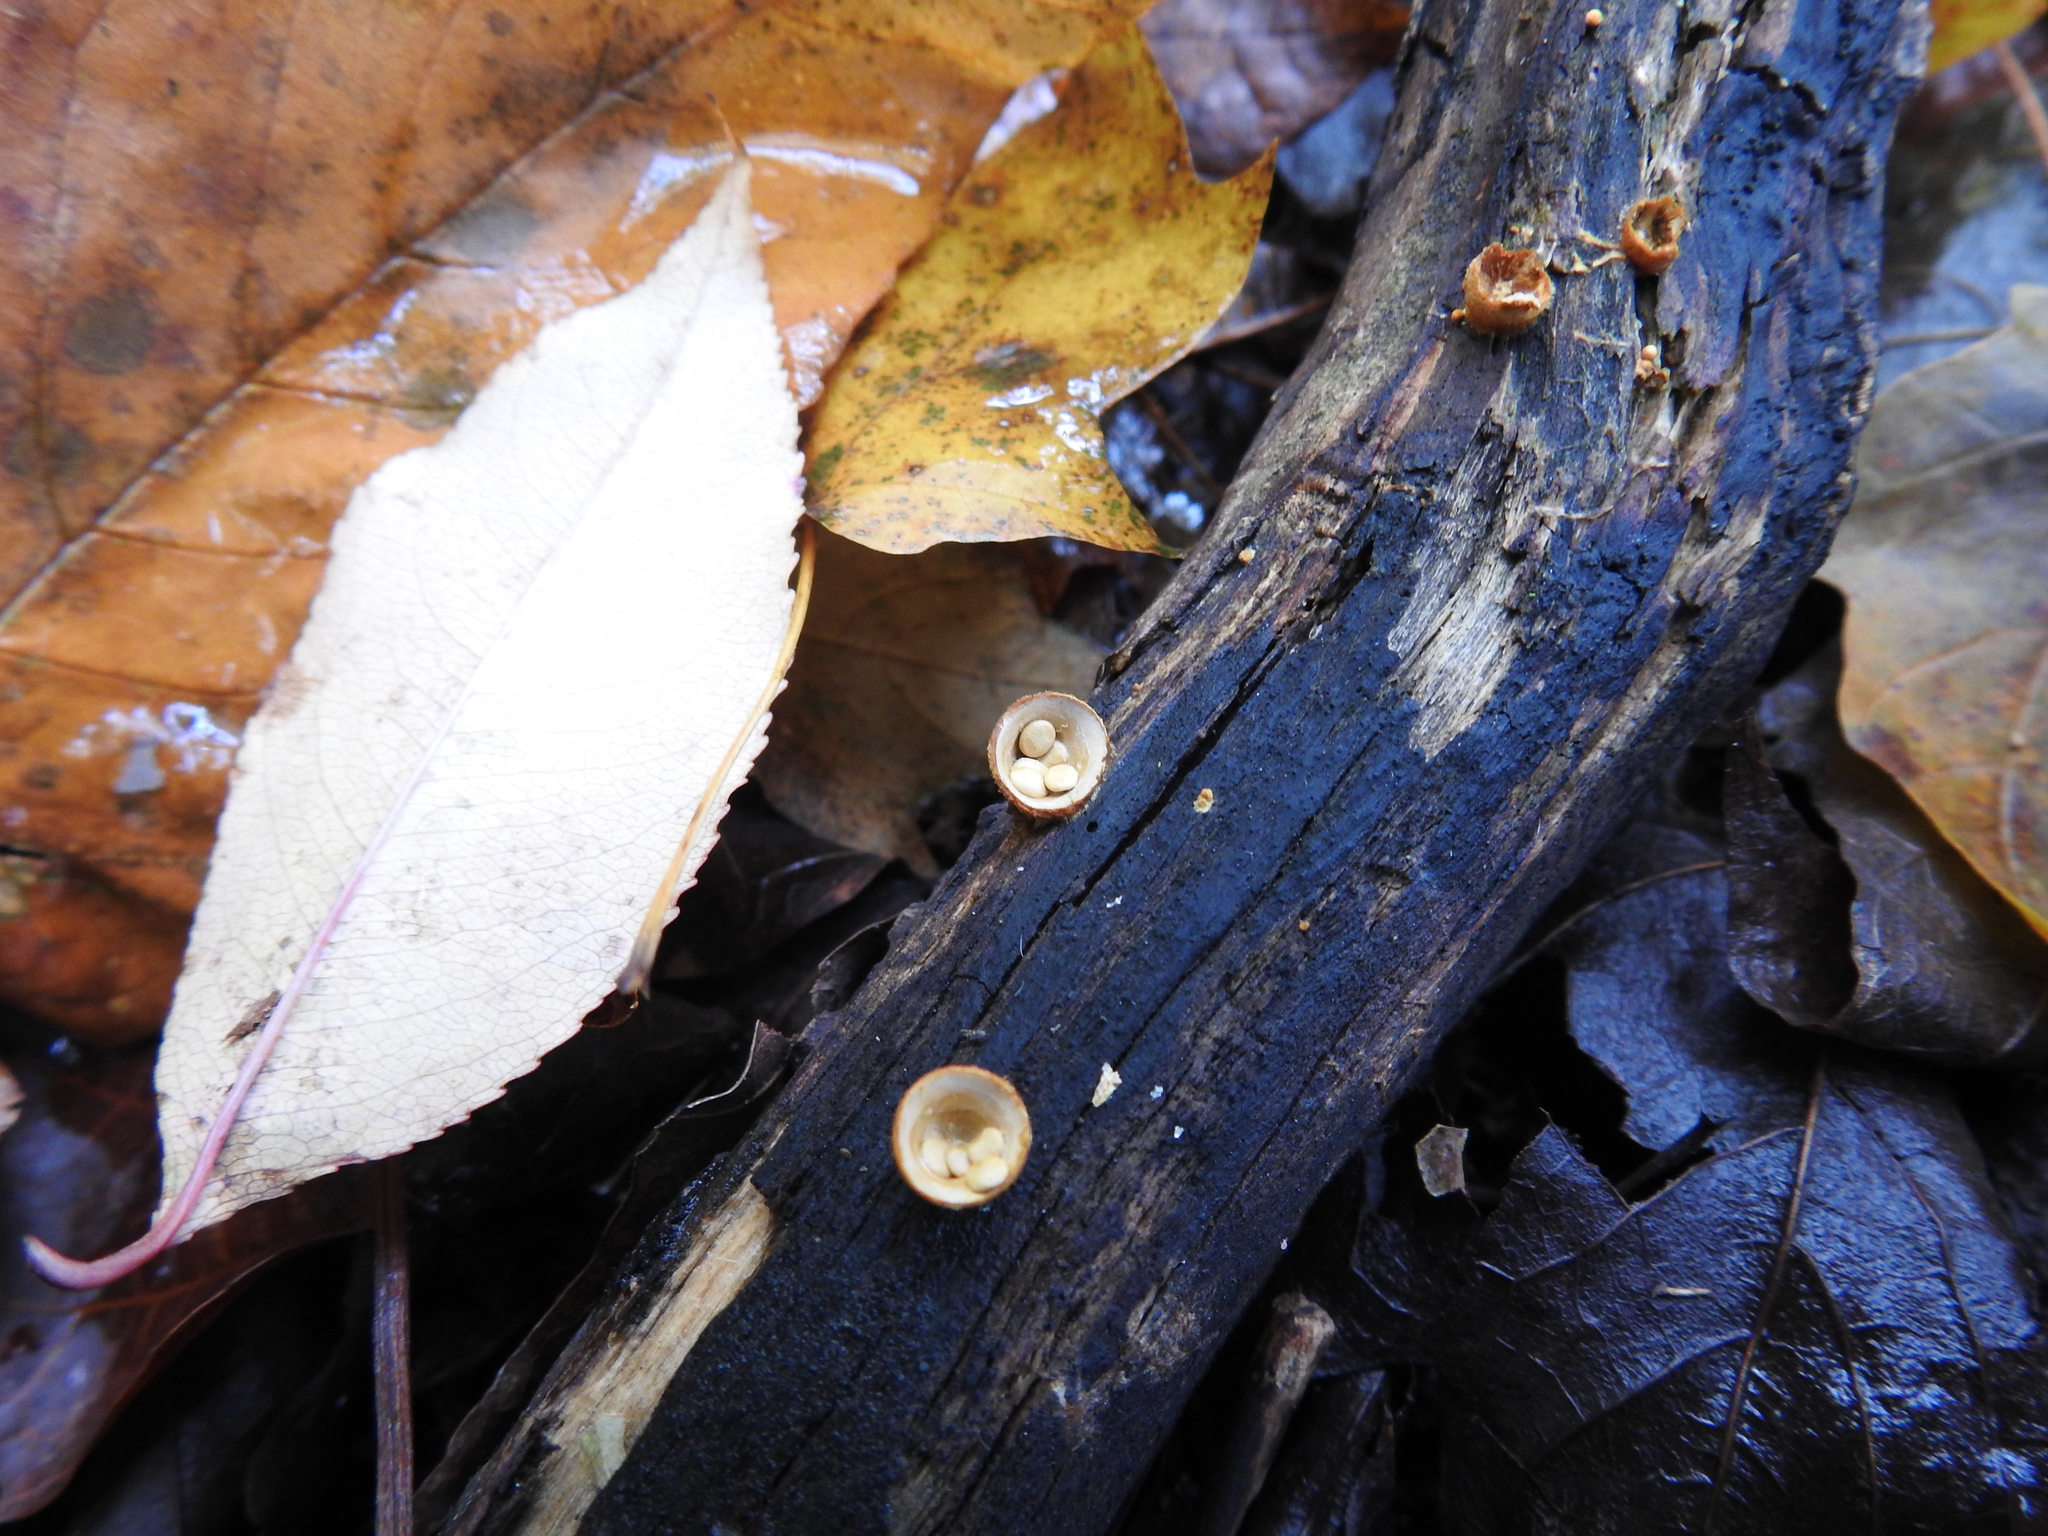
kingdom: Fungi
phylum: Basidiomycota
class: Agaricomycetes
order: Agaricales
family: Nidulariaceae
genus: Crucibulum
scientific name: Crucibulum laeve
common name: Common bird's nest
